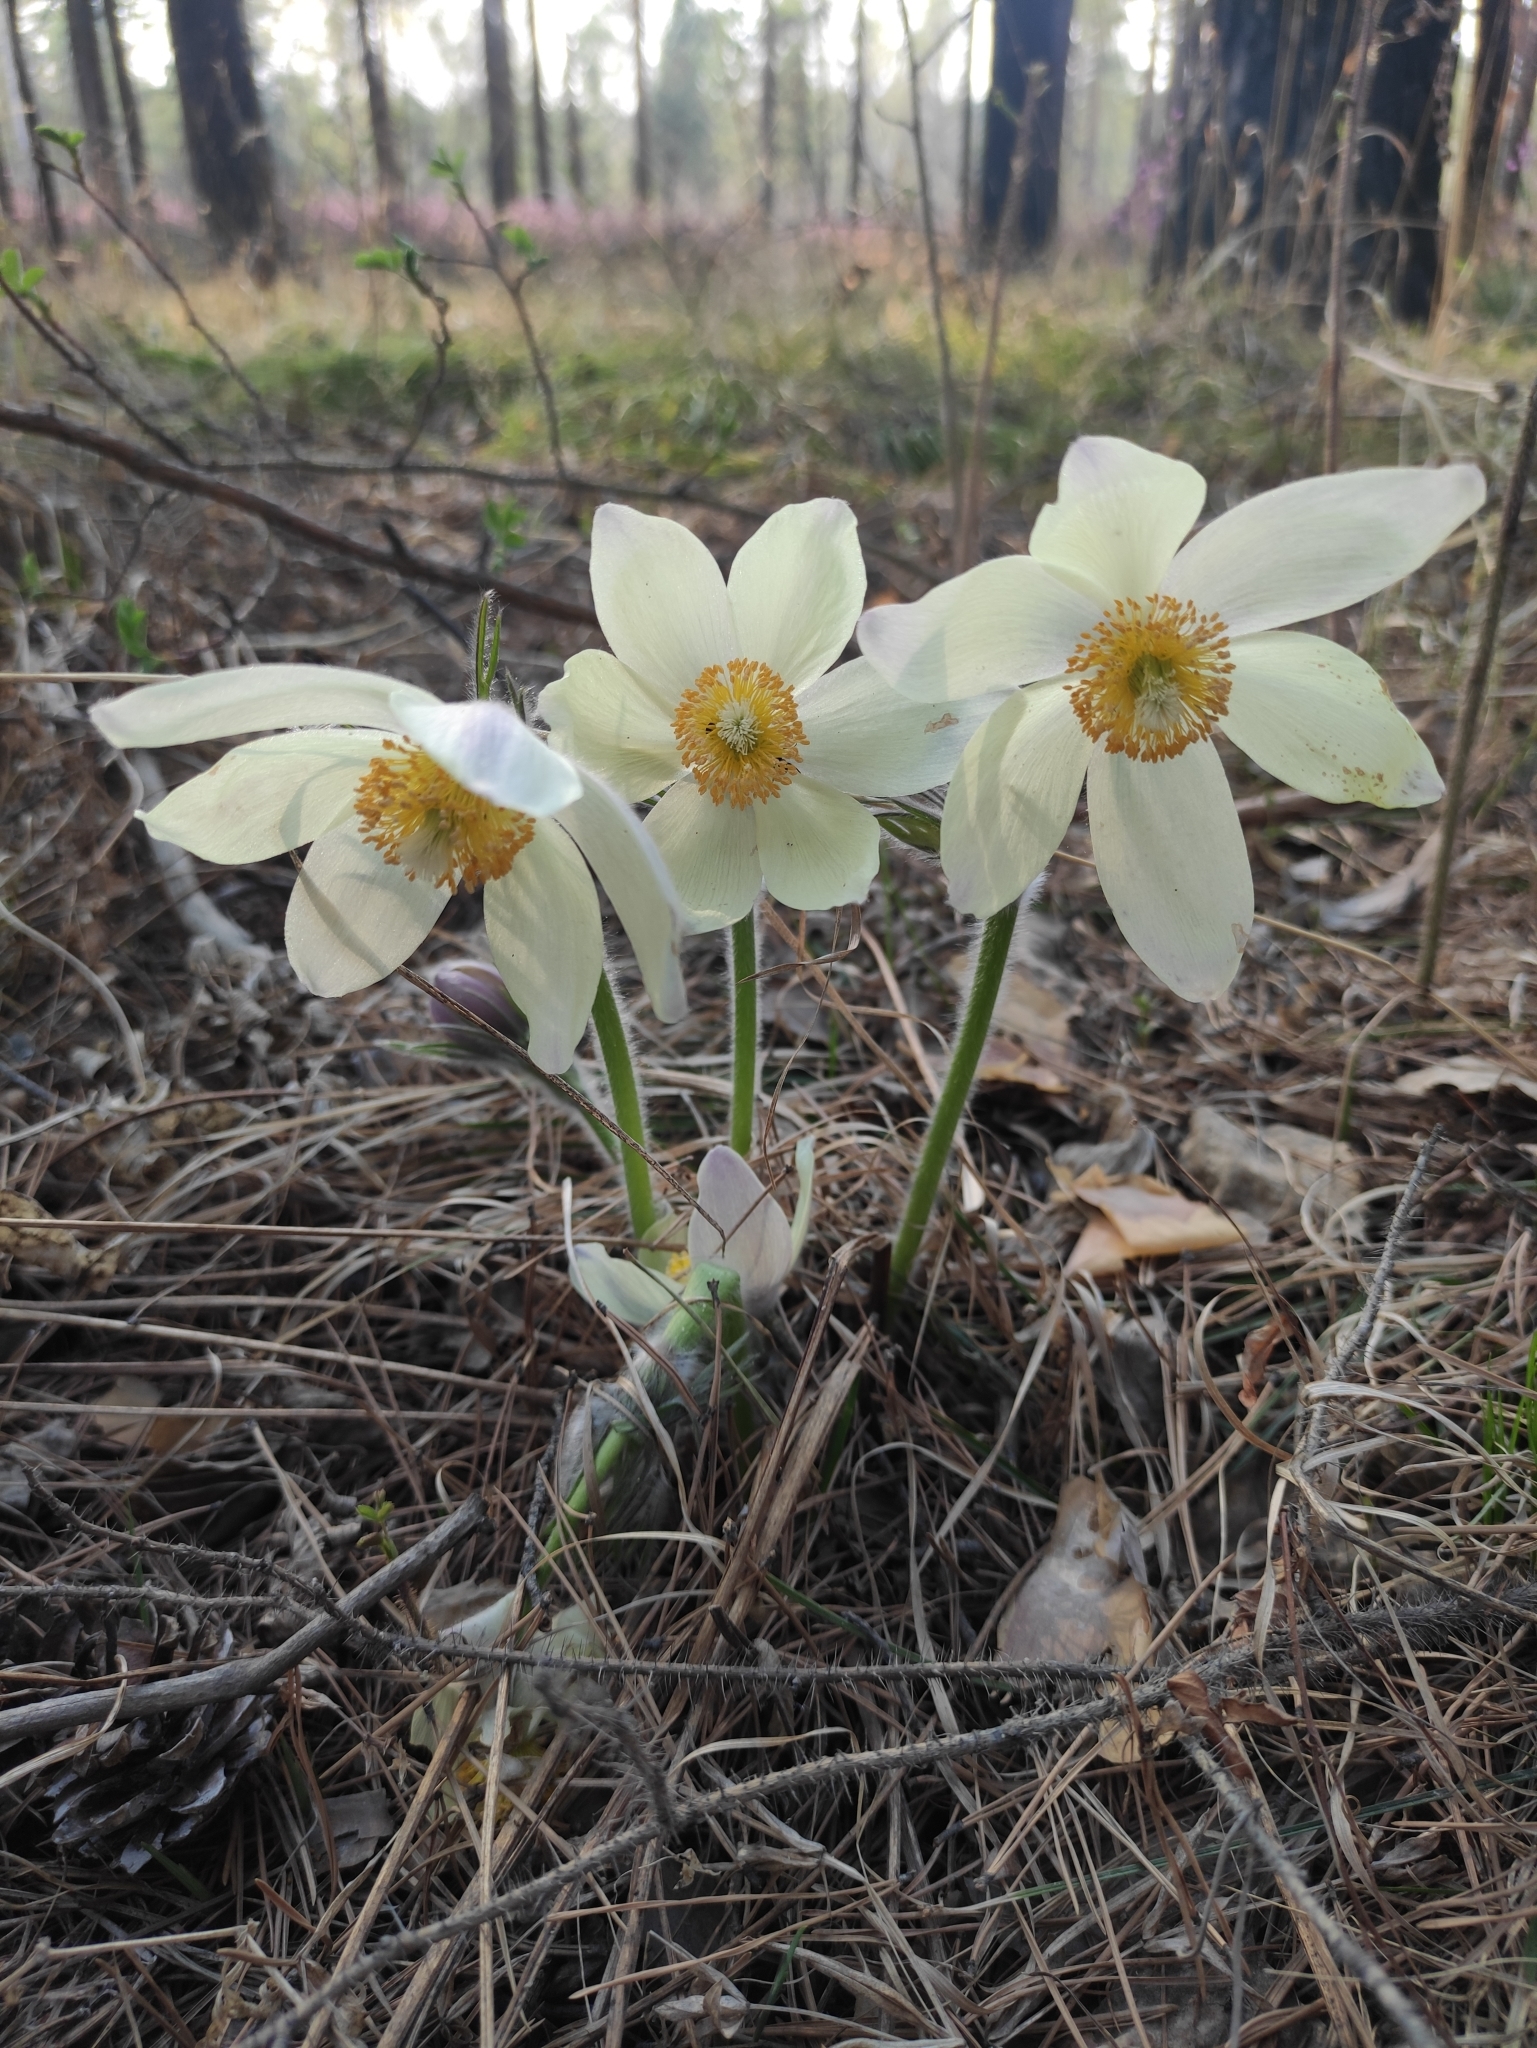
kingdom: Plantae
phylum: Tracheophyta
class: Magnoliopsida
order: Ranunculales
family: Ranunculaceae
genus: Pulsatilla
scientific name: Pulsatilla patens
